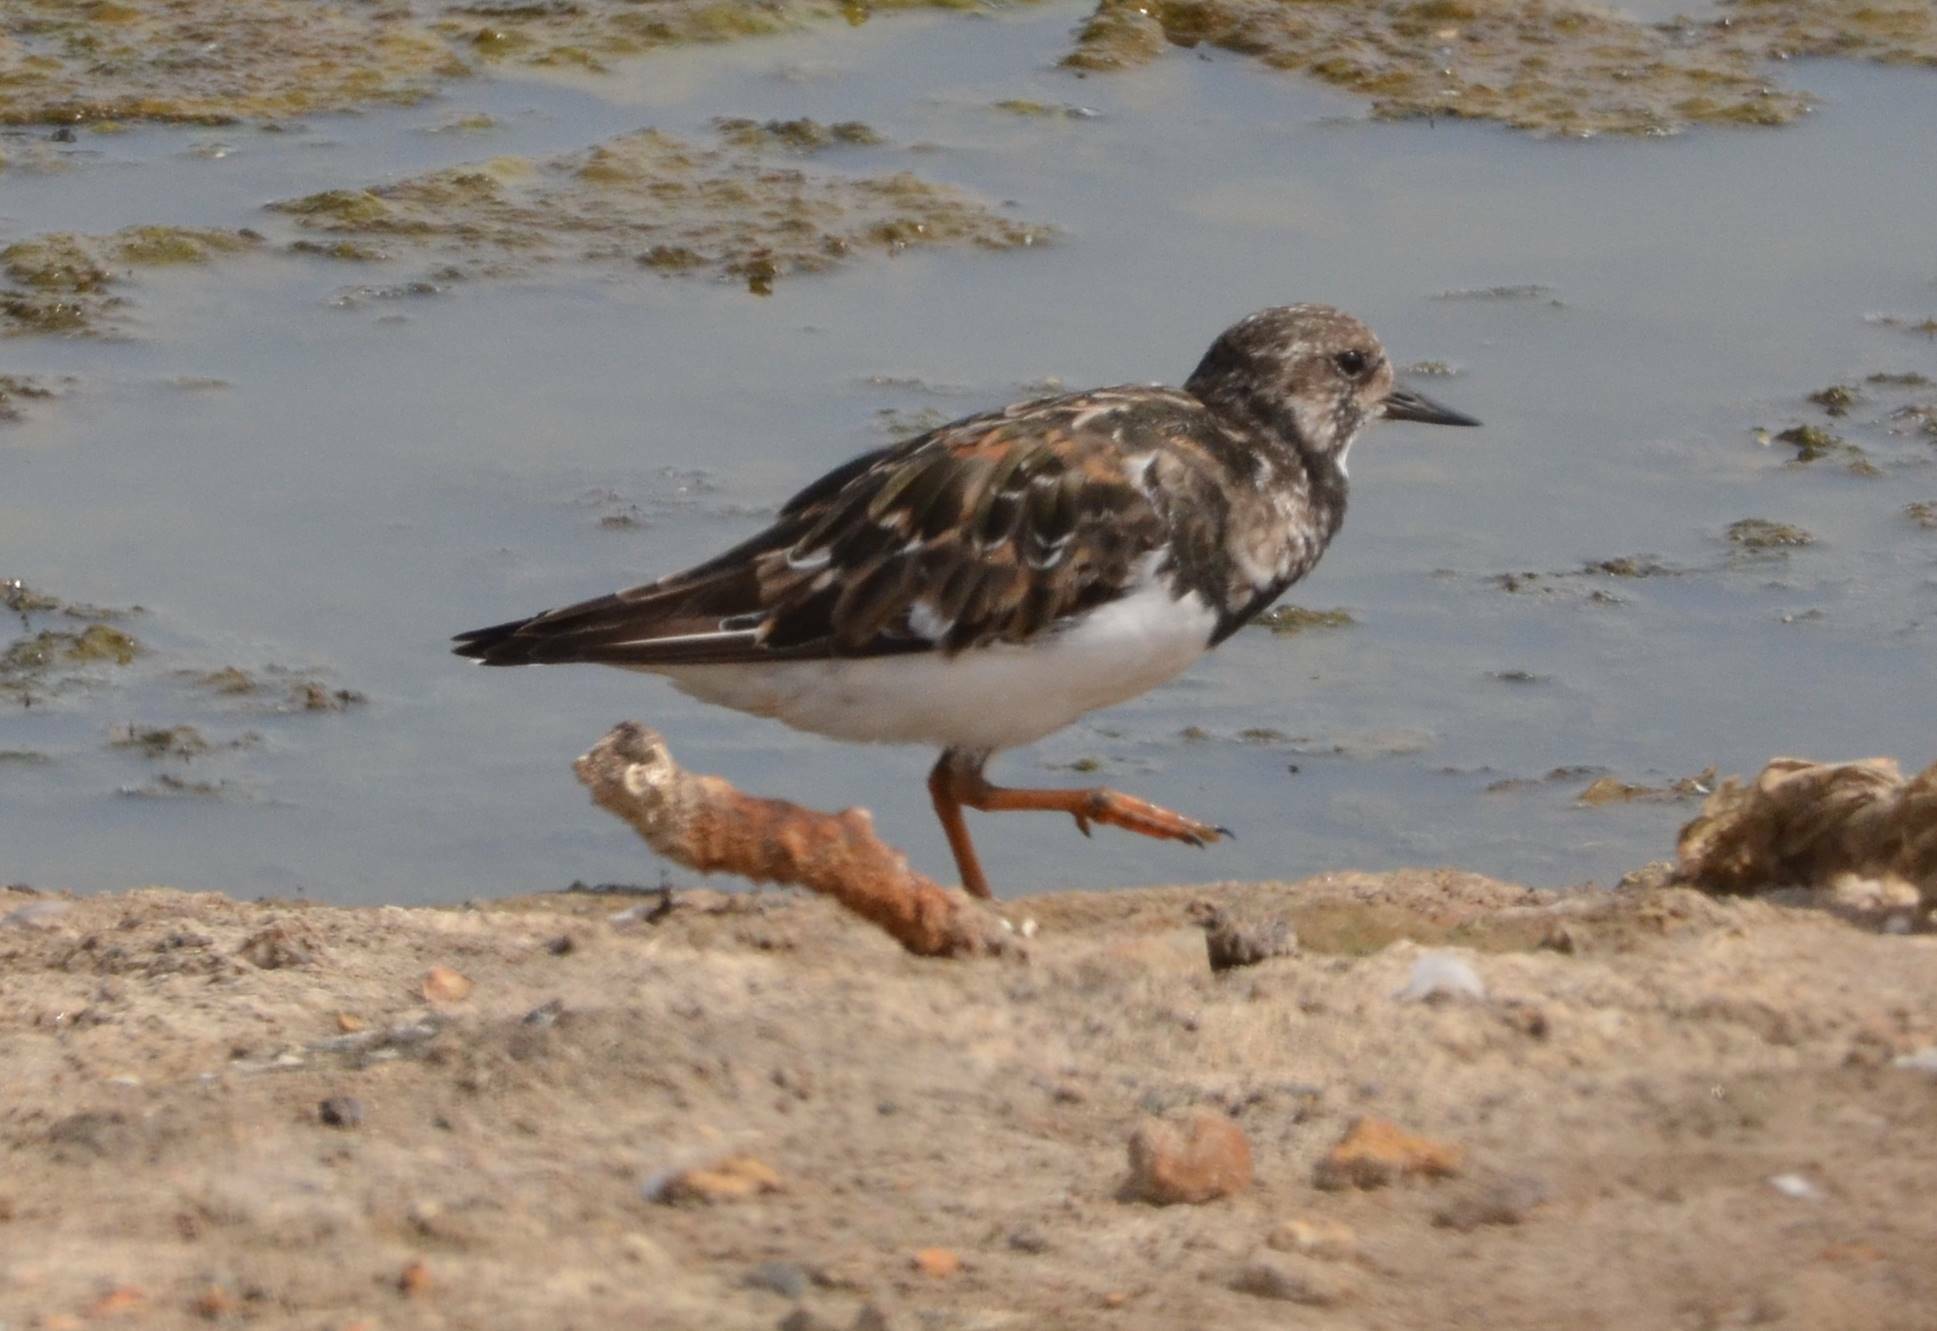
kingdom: Animalia
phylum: Chordata
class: Aves
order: Charadriiformes
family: Scolopacidae
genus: Arenaria
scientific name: Arenaria interpres
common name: Ruddy turnstone
